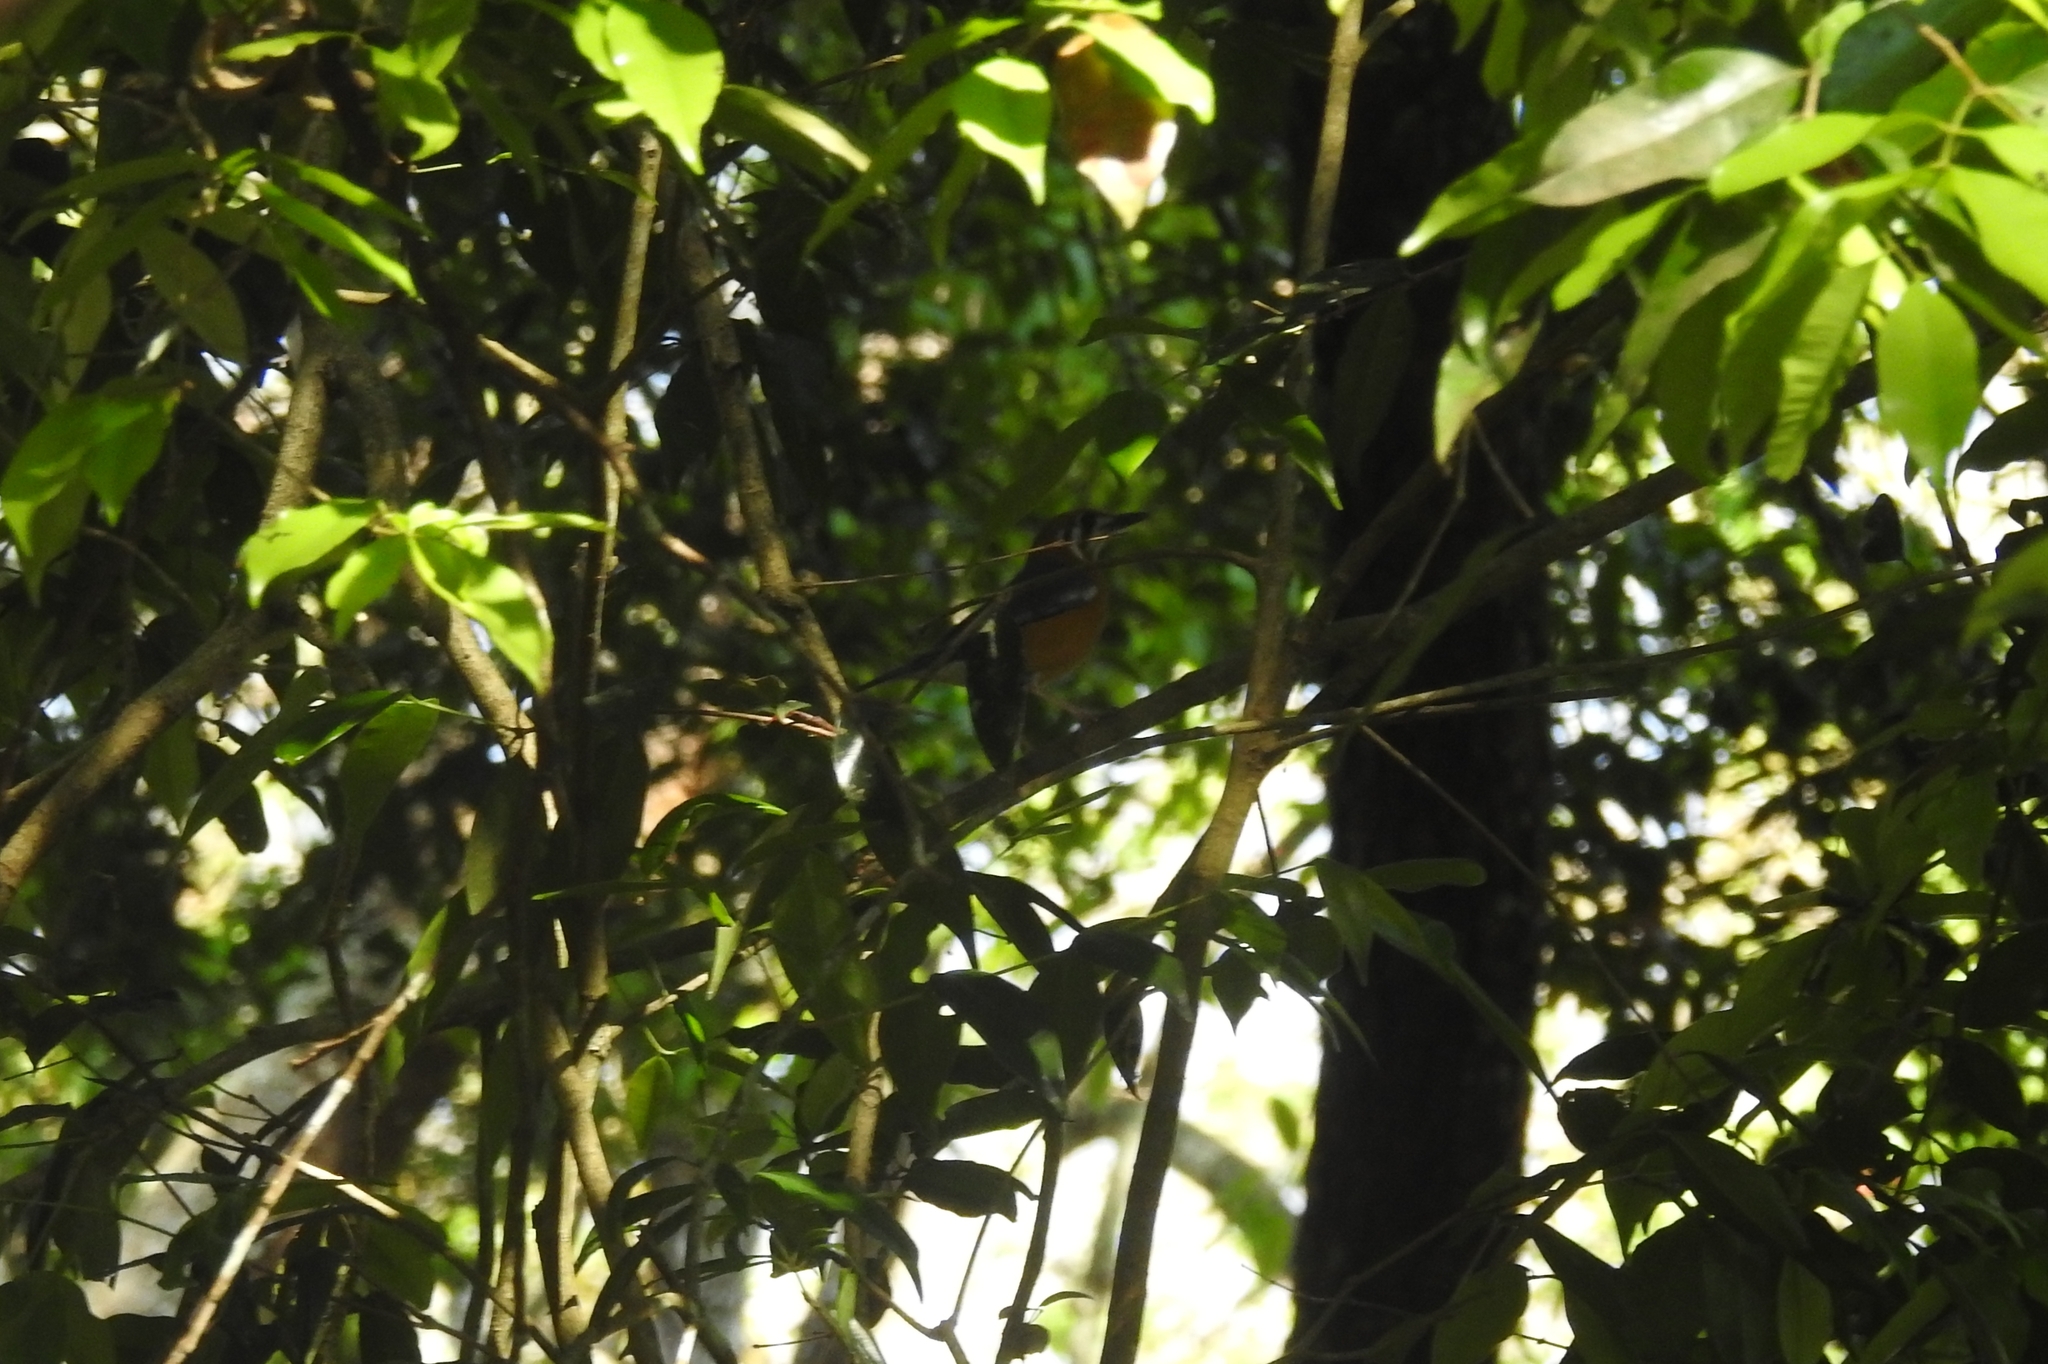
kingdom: Animalia
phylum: Chordata
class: Aves
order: Passeriformes
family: Turdidae
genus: Geokichla
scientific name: Geokichla citrina
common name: Orange-headed thrush
